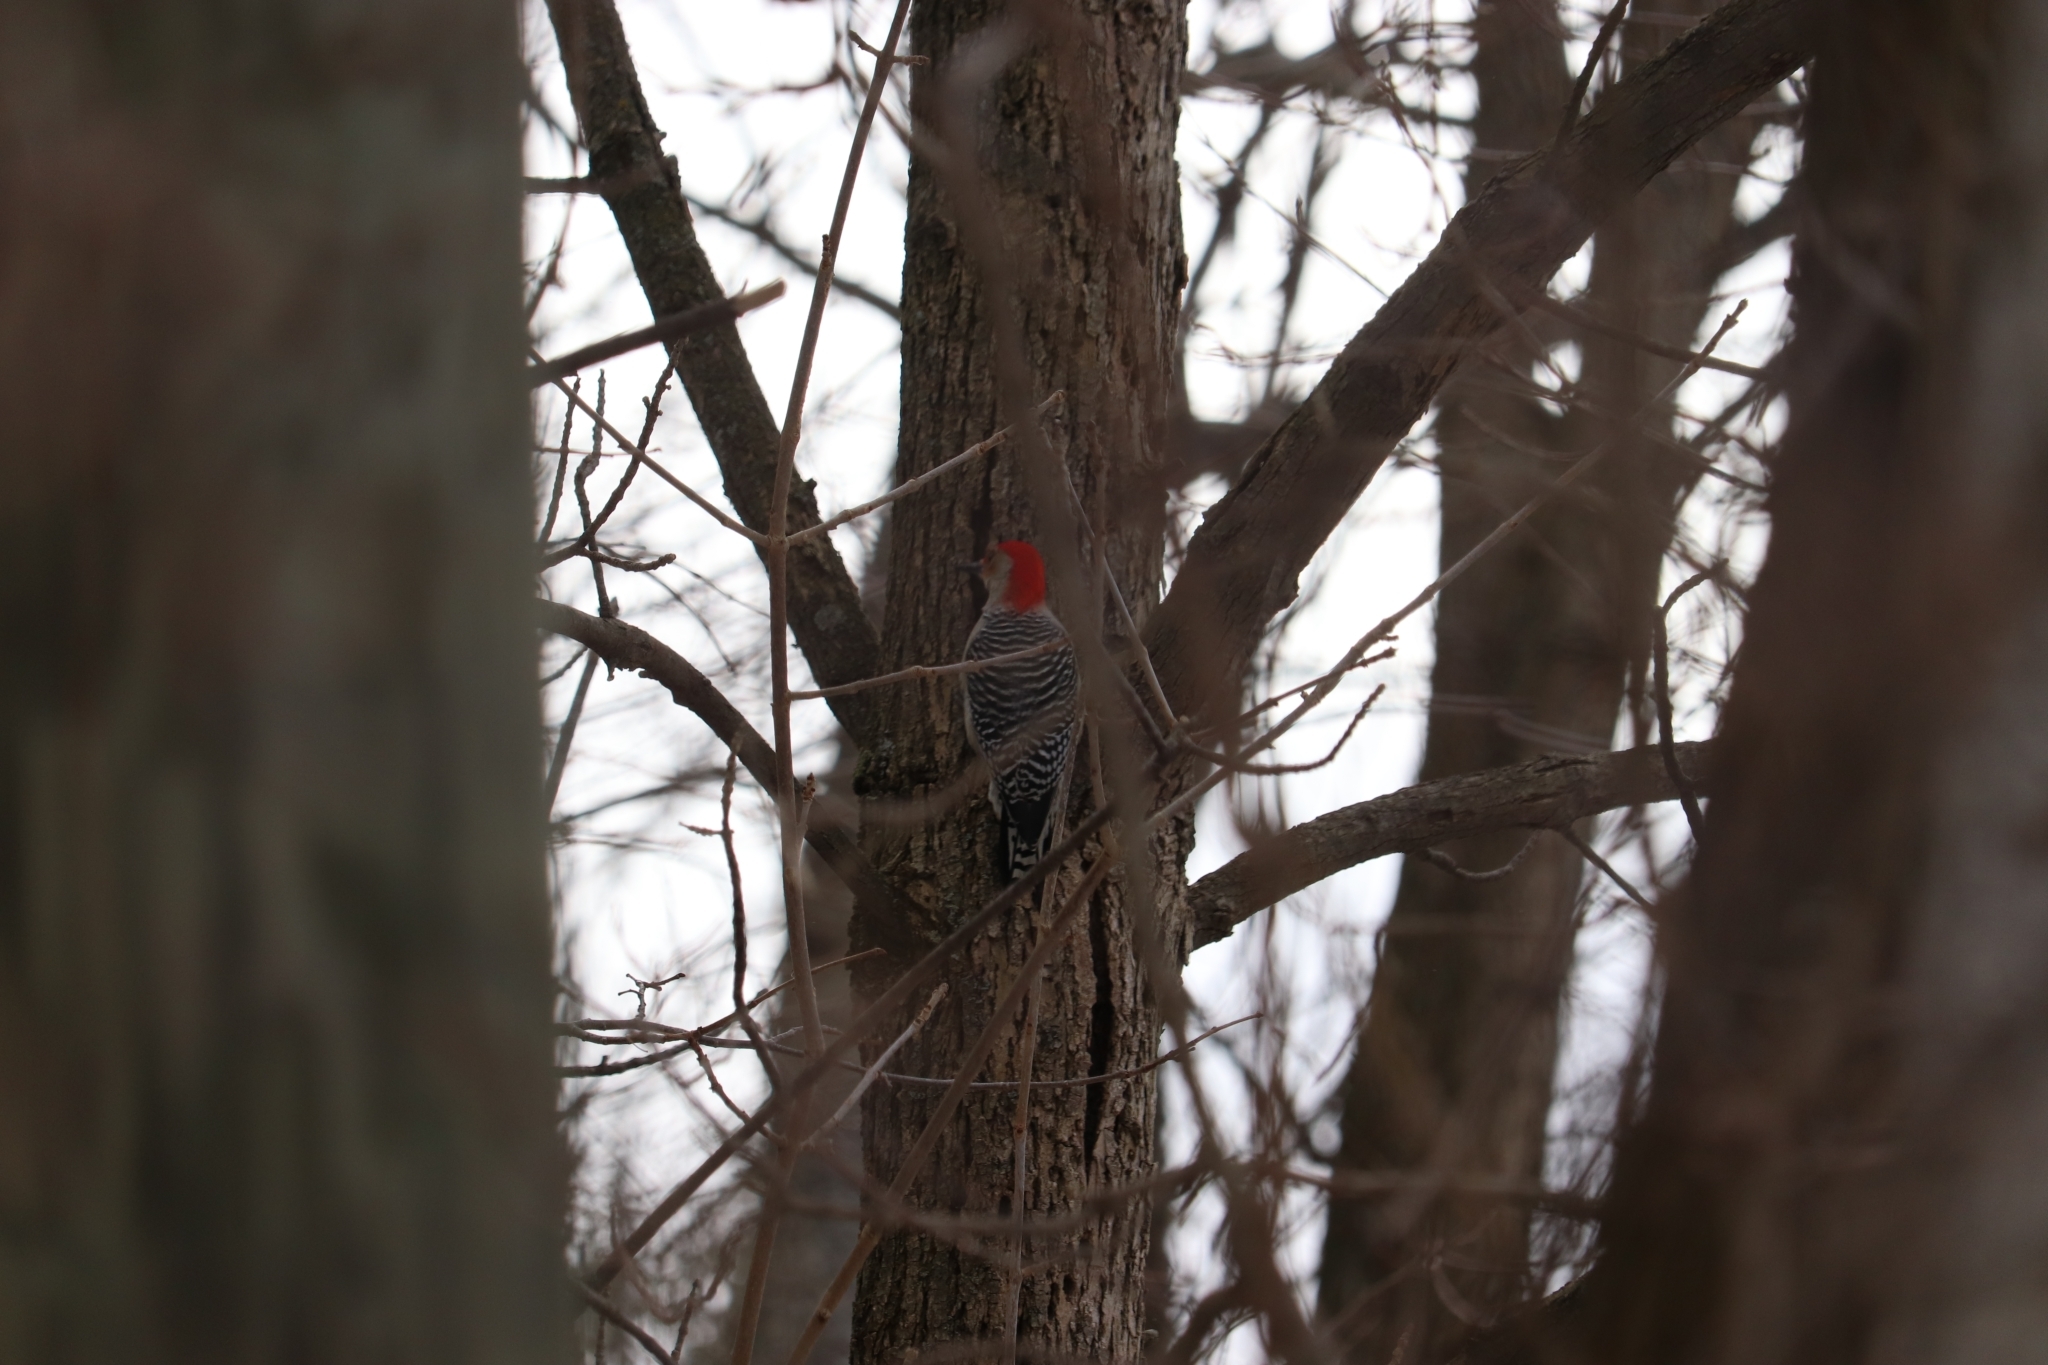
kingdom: Animalia
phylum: Chordata
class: Aves
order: Piciformes
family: Picidae
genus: Melanerpes
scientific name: Melanerpes carolinus
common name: Red-bellied woodpecker
